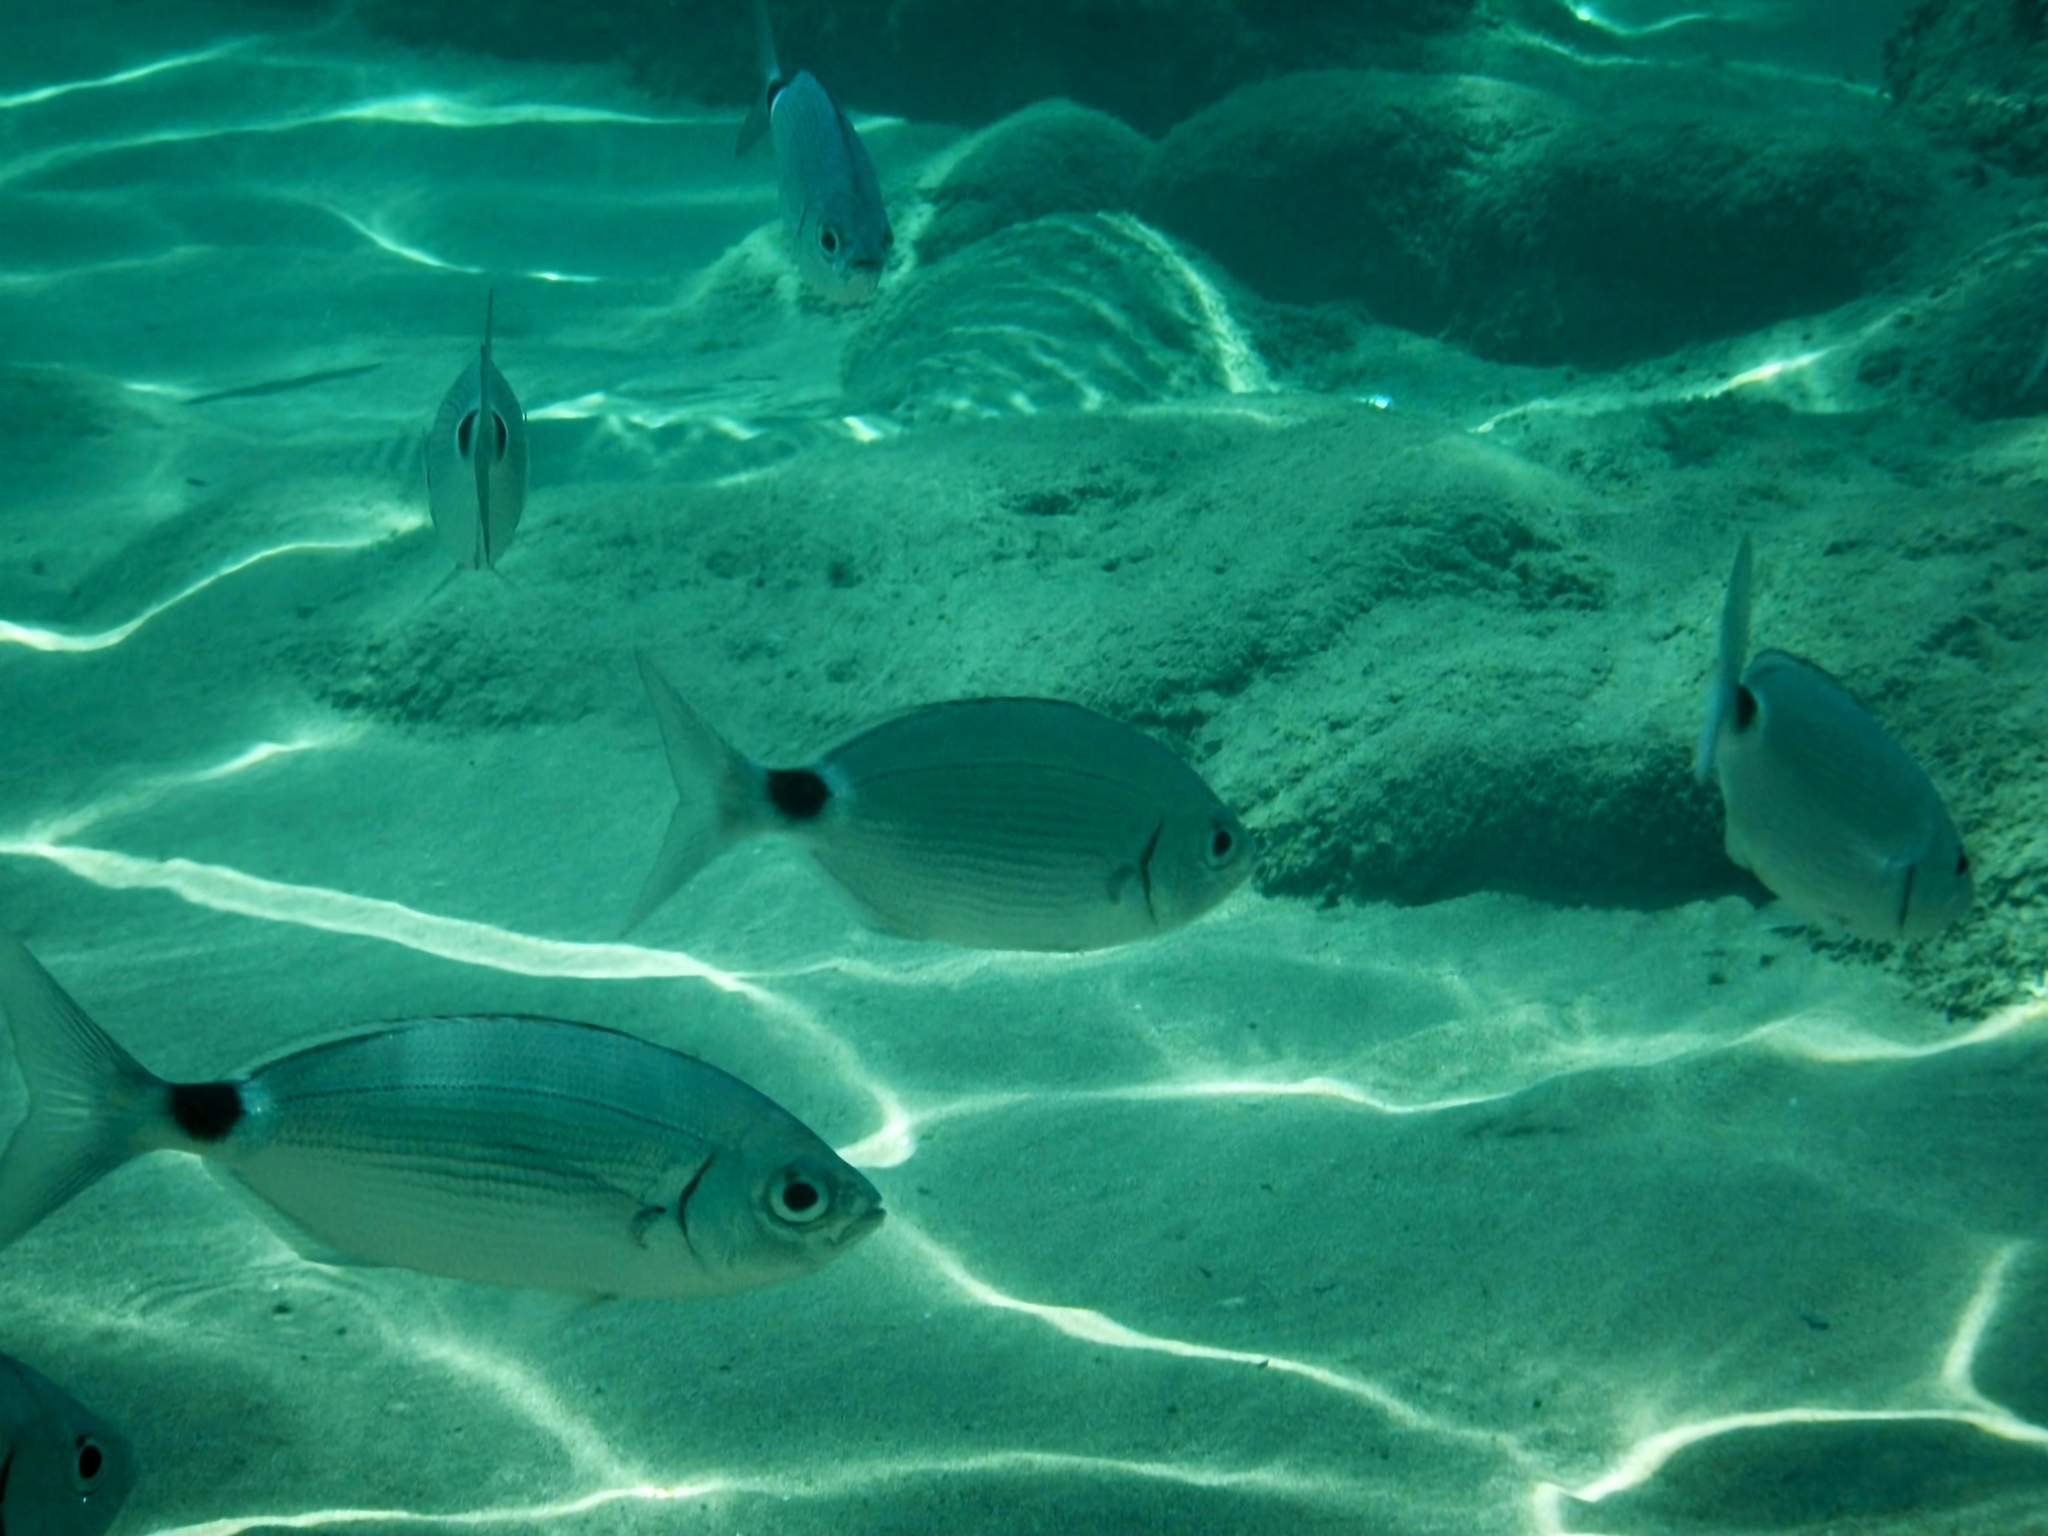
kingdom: Animalia
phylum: Chordata
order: Perciformes
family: Sparidae
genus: Oblada
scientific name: Oblada melanura
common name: Saddled seabream
